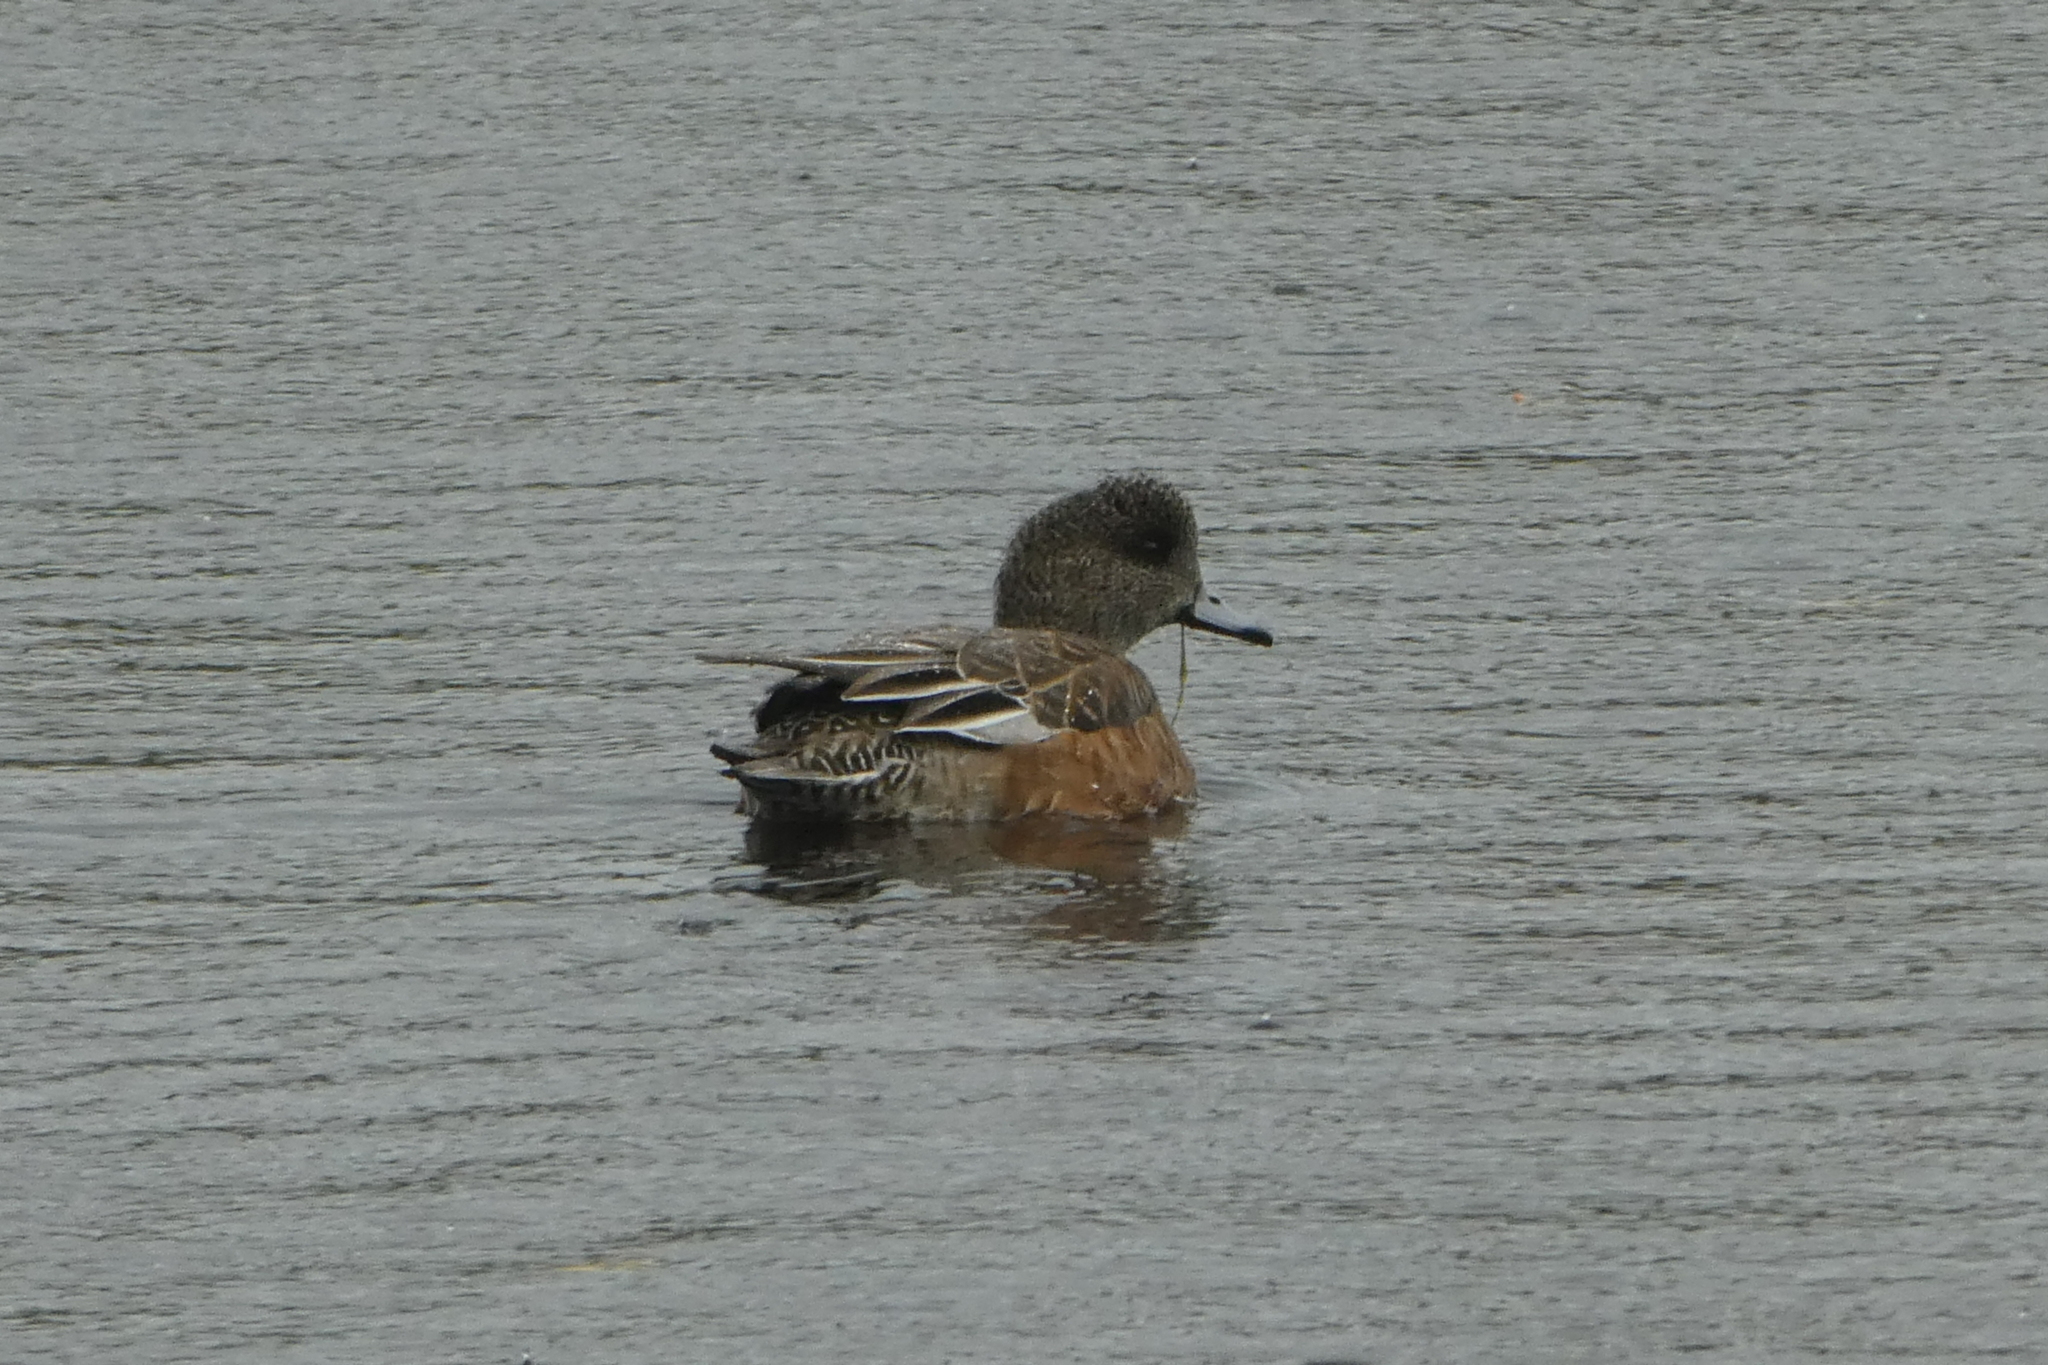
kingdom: Animalia
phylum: Chordata
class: Aves
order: Anseriformes
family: Anatidae
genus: Mareca
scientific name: Mareca americana
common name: American wigeon
